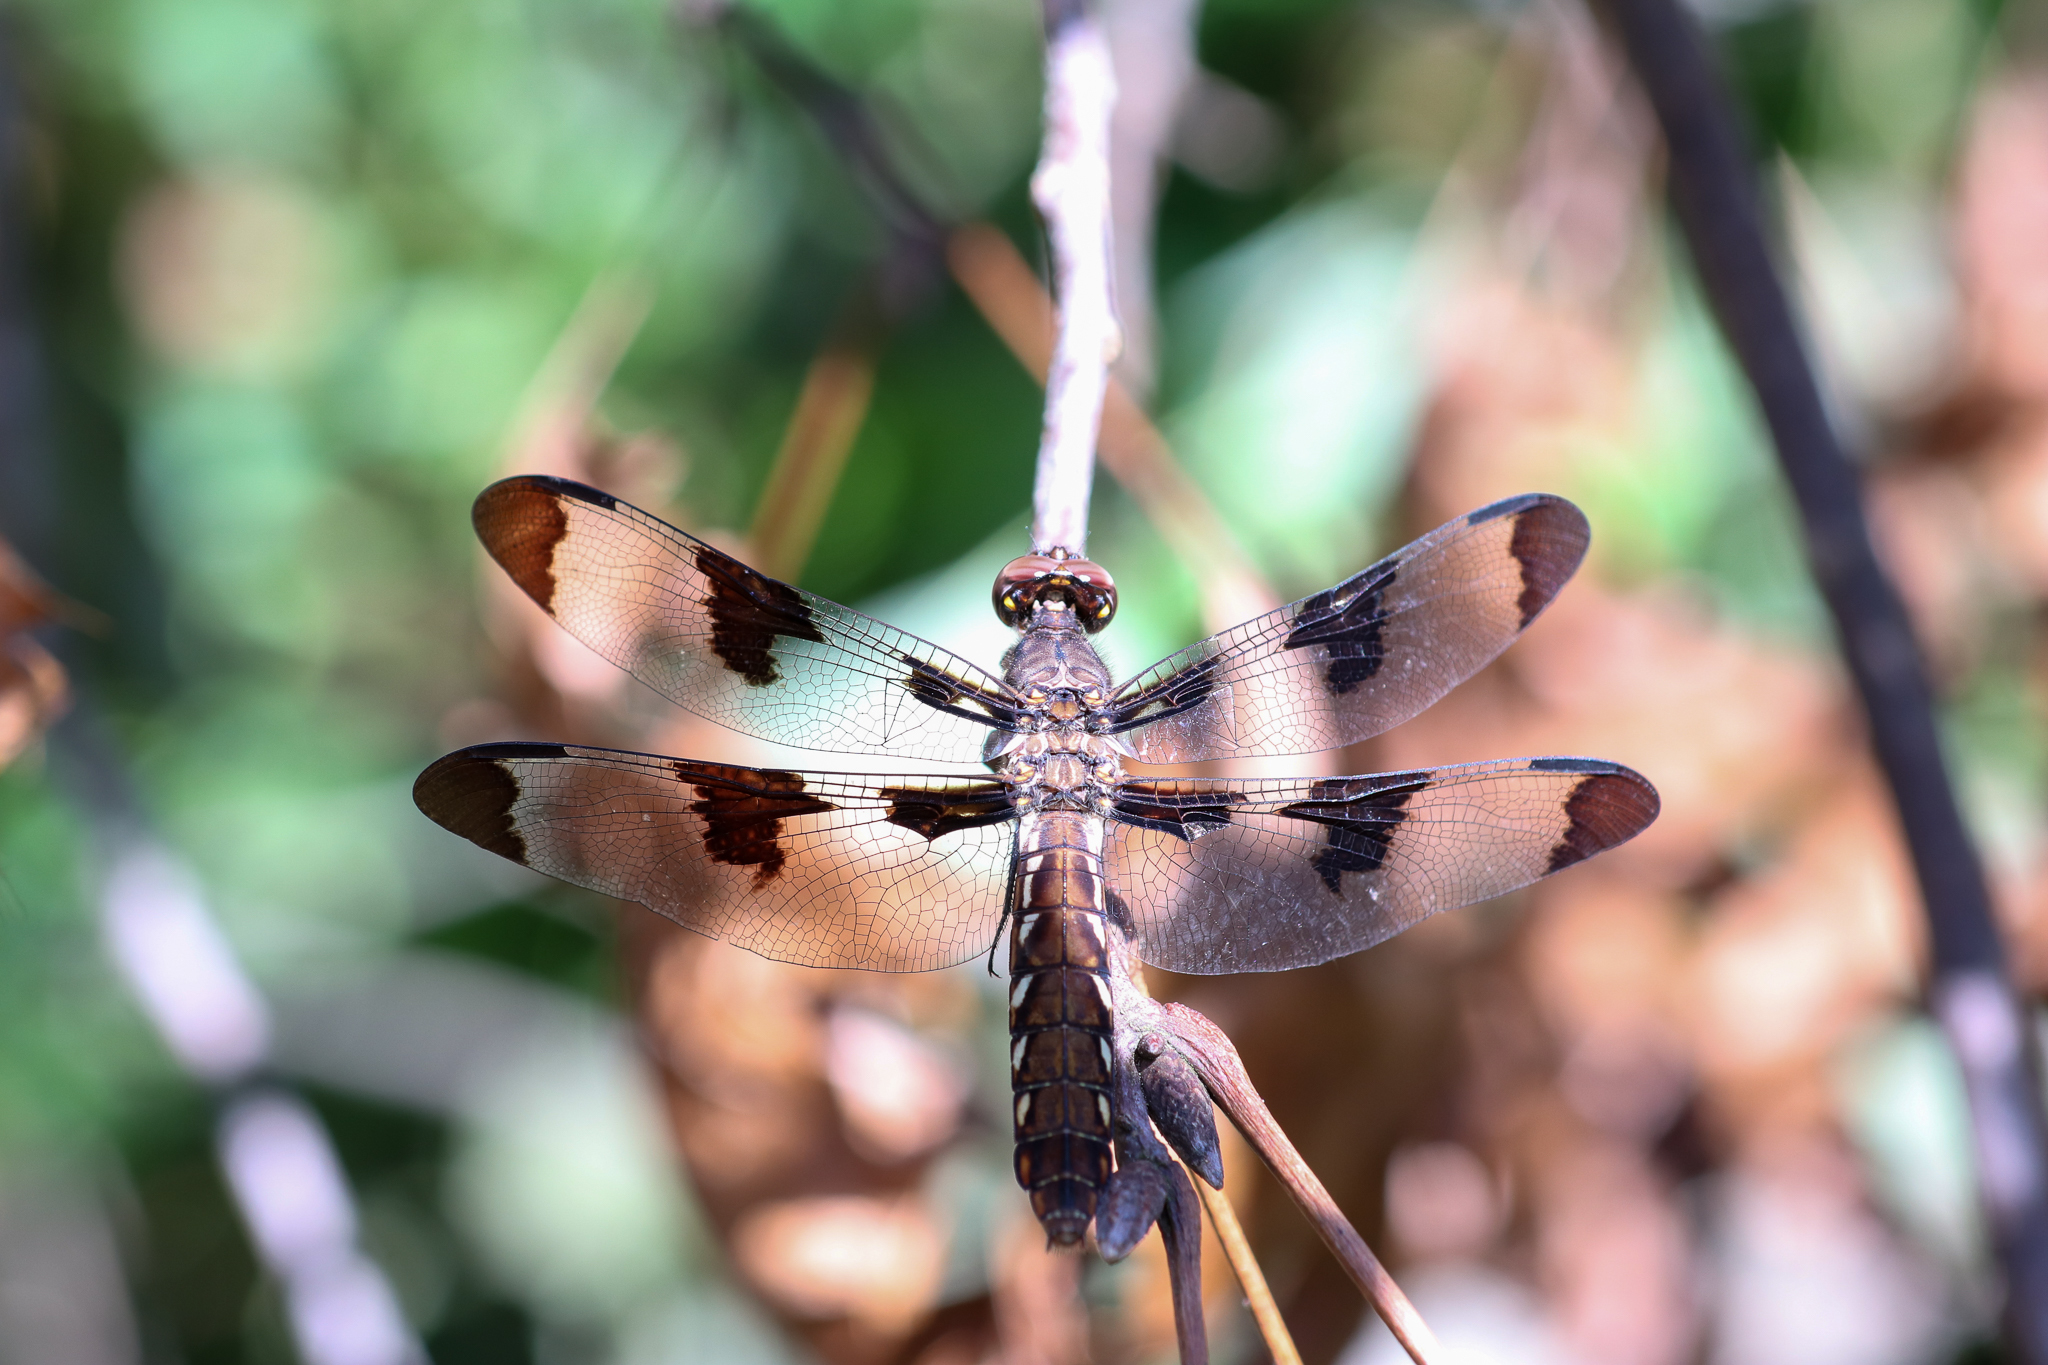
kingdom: Animalia
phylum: Arthropoda
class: Insecta
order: Odonata
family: Libellulidae
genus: Plathemis
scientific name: Plathemis lydia
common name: Common whitetail
